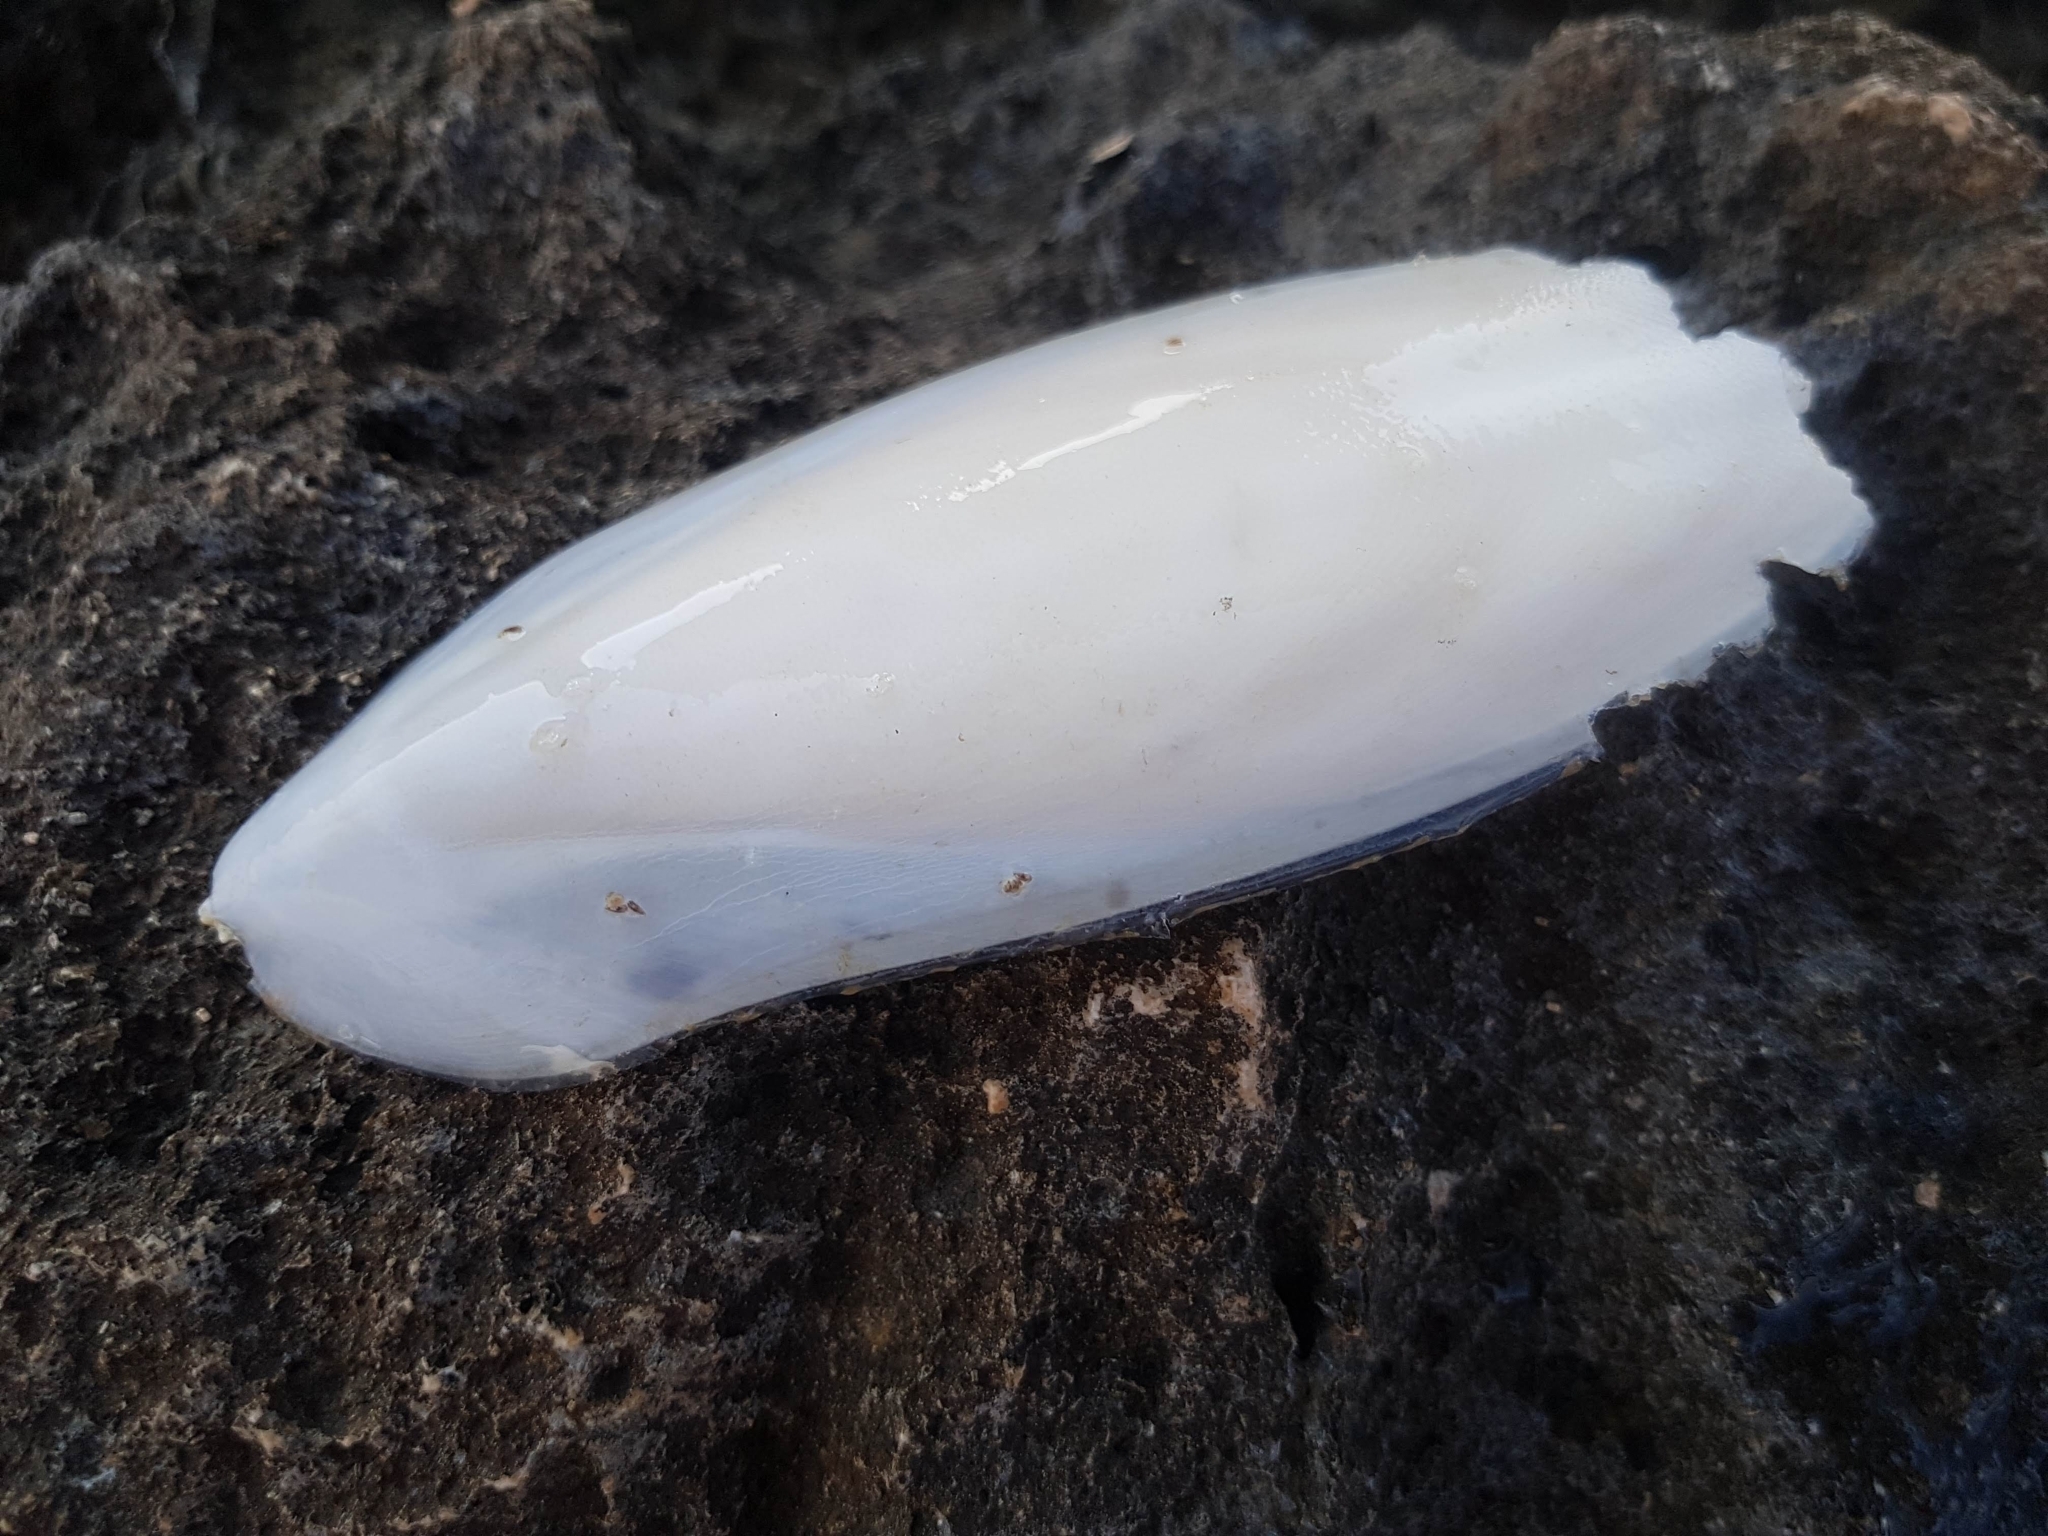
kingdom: Animalia
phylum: Mollusca
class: Cephalopoda
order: Sepiida
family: Sepiidae
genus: Sepia
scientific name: Sepia officinalis
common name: Common cuttlefish
